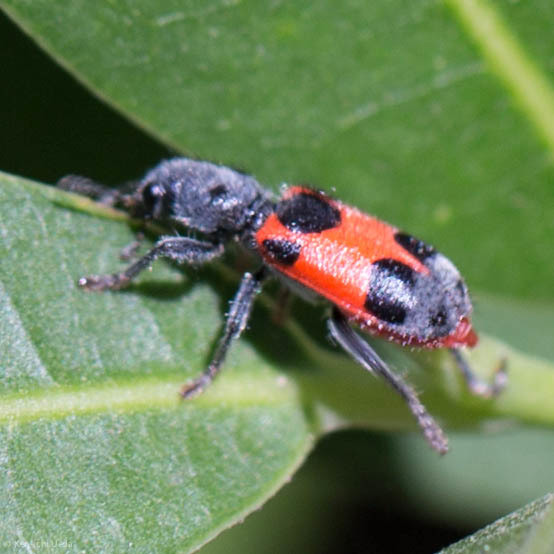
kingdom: Animalia
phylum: Arthropoda
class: Insecta
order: Coleoptera
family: Cleridae
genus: Enoclerus
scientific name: Enoclerus eximius
